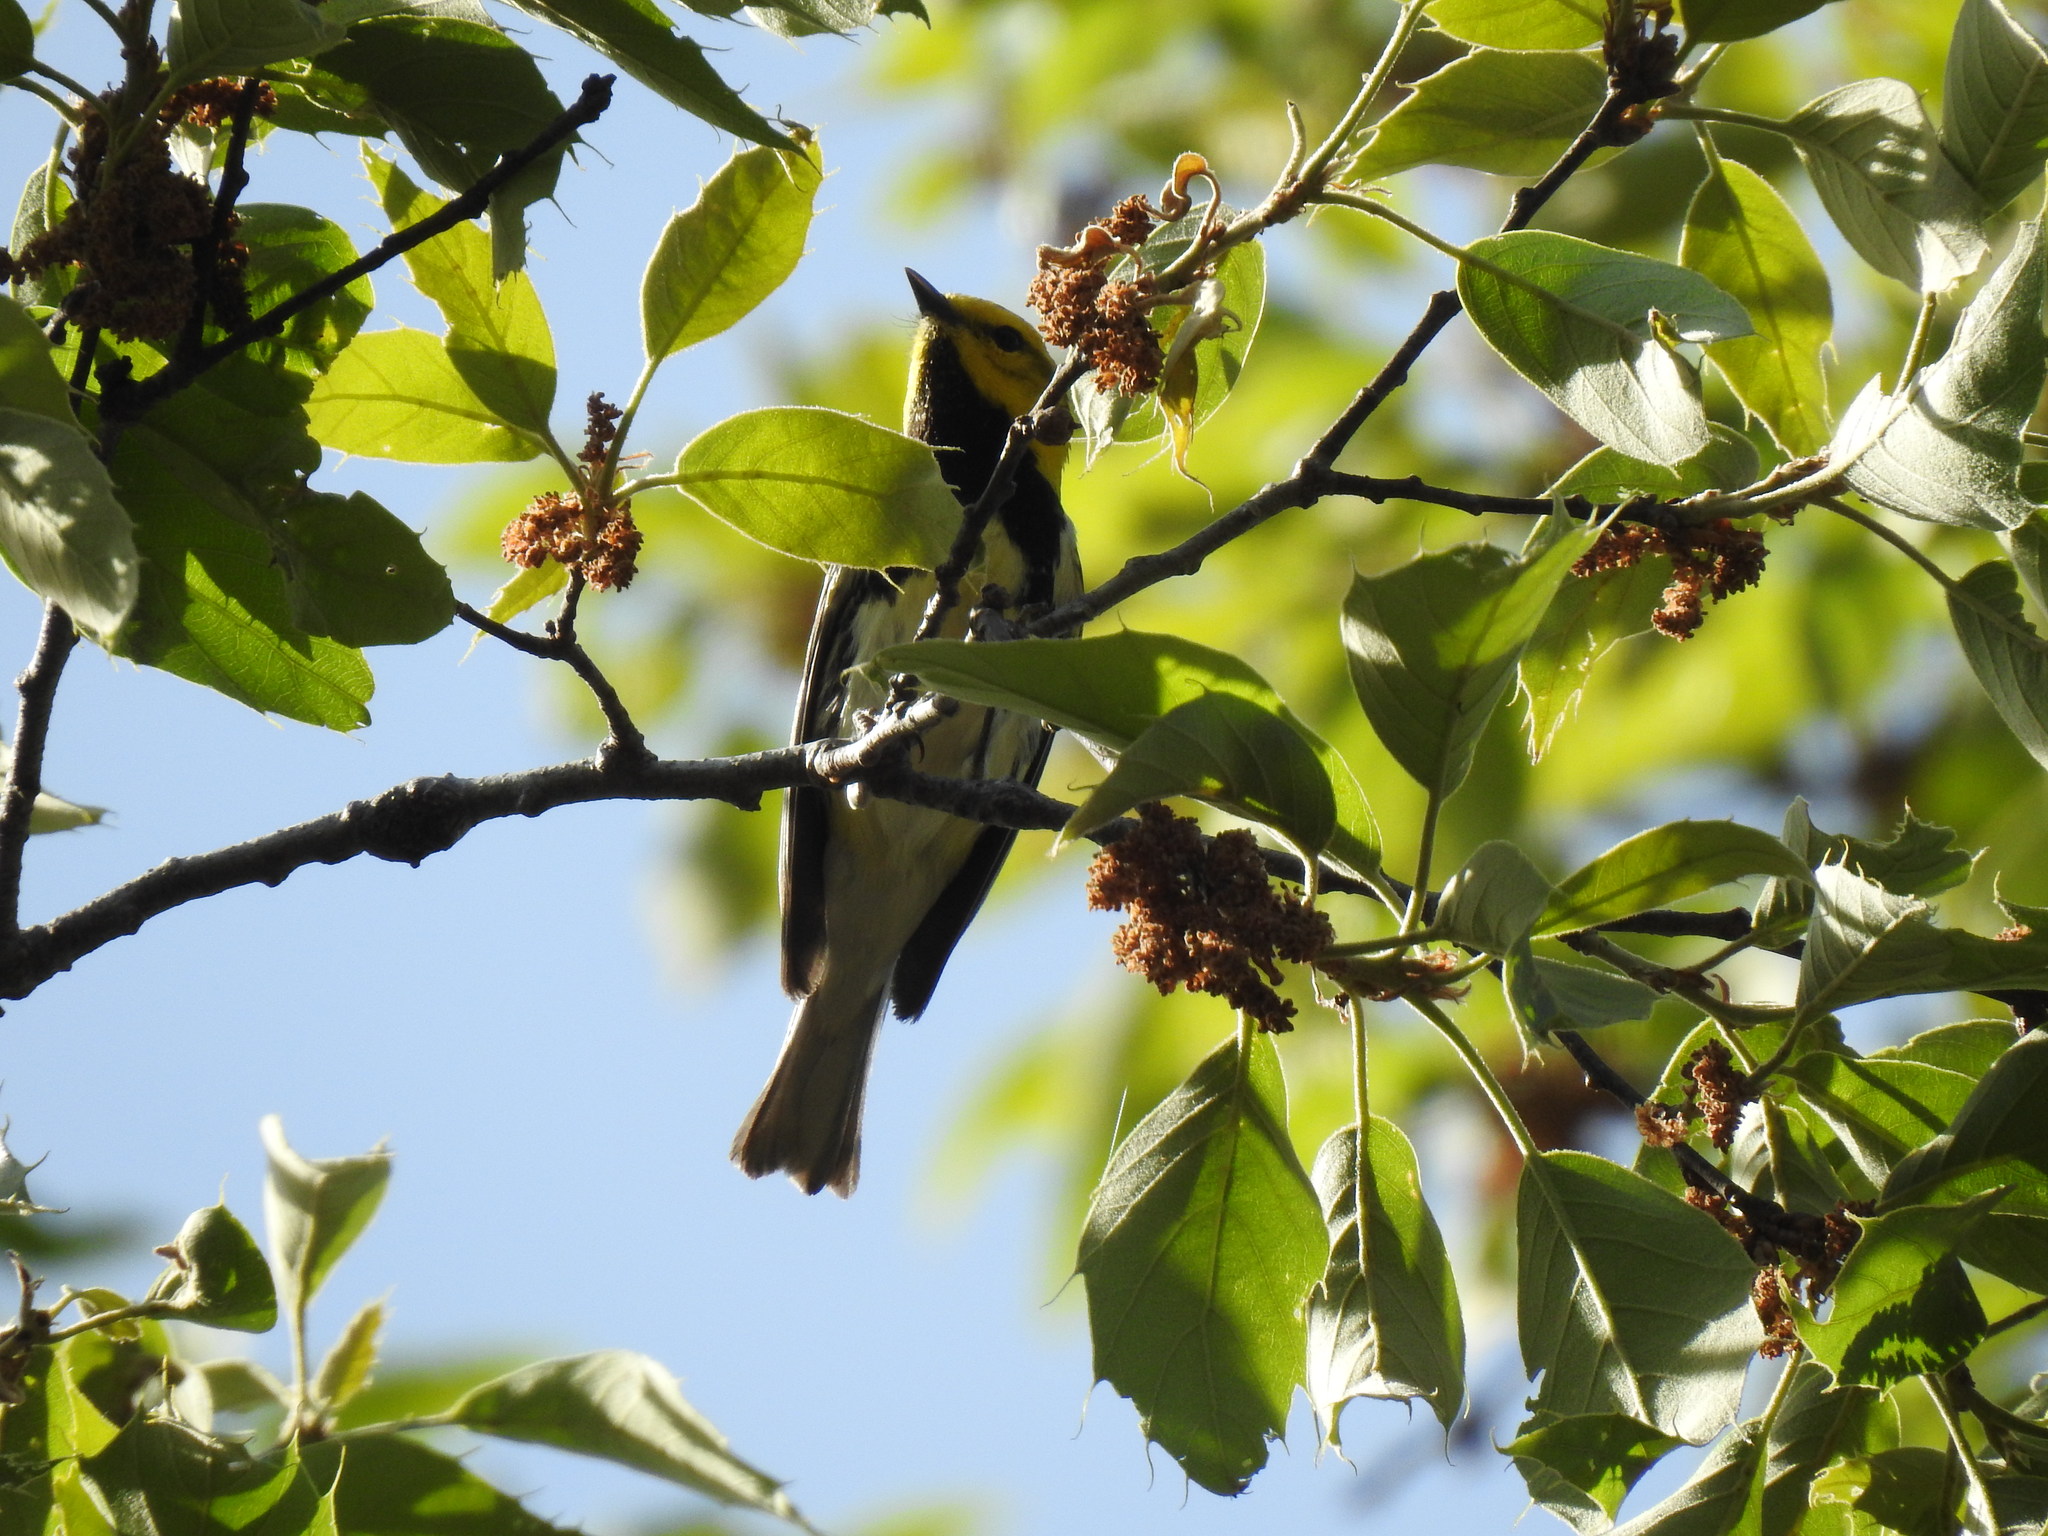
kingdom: Animalia
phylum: Chordata
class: Aves
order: Passeriformes
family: Parulidae
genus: Setophaga
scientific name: Setophaga virens
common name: Black-throated green warbler
